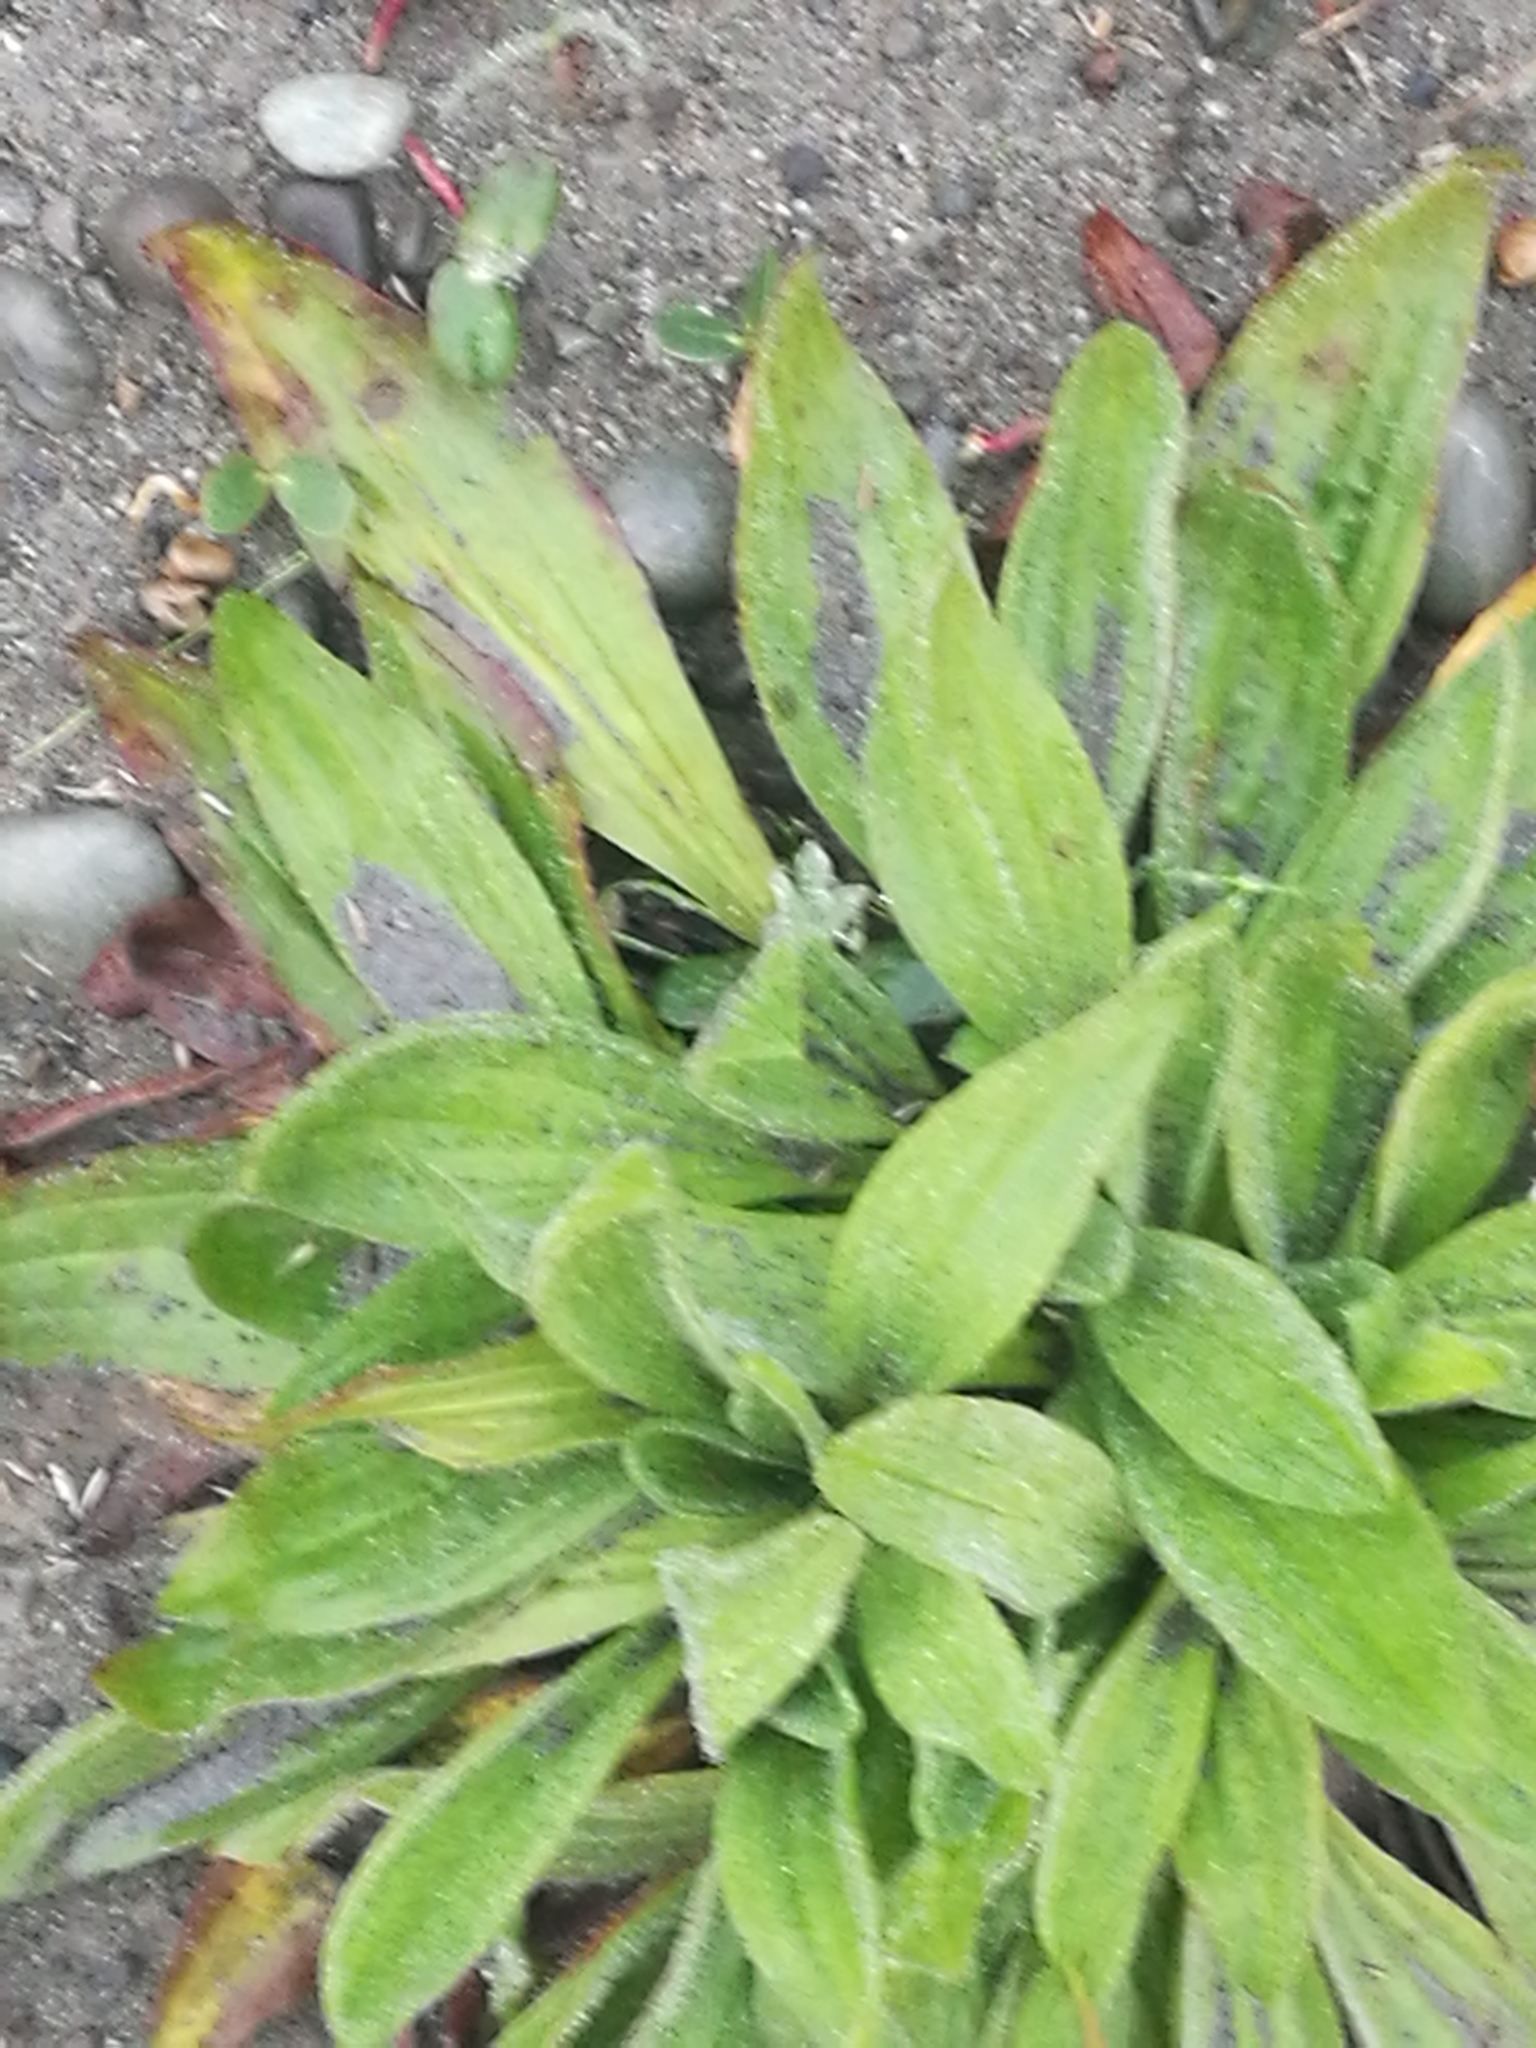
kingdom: Plantae
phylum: Tracheophyta
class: Magnoliopsida
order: Lamiales
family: Plantaginaceae
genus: Plantago
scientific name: Plantago lanceolata
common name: Ribwort plantain
